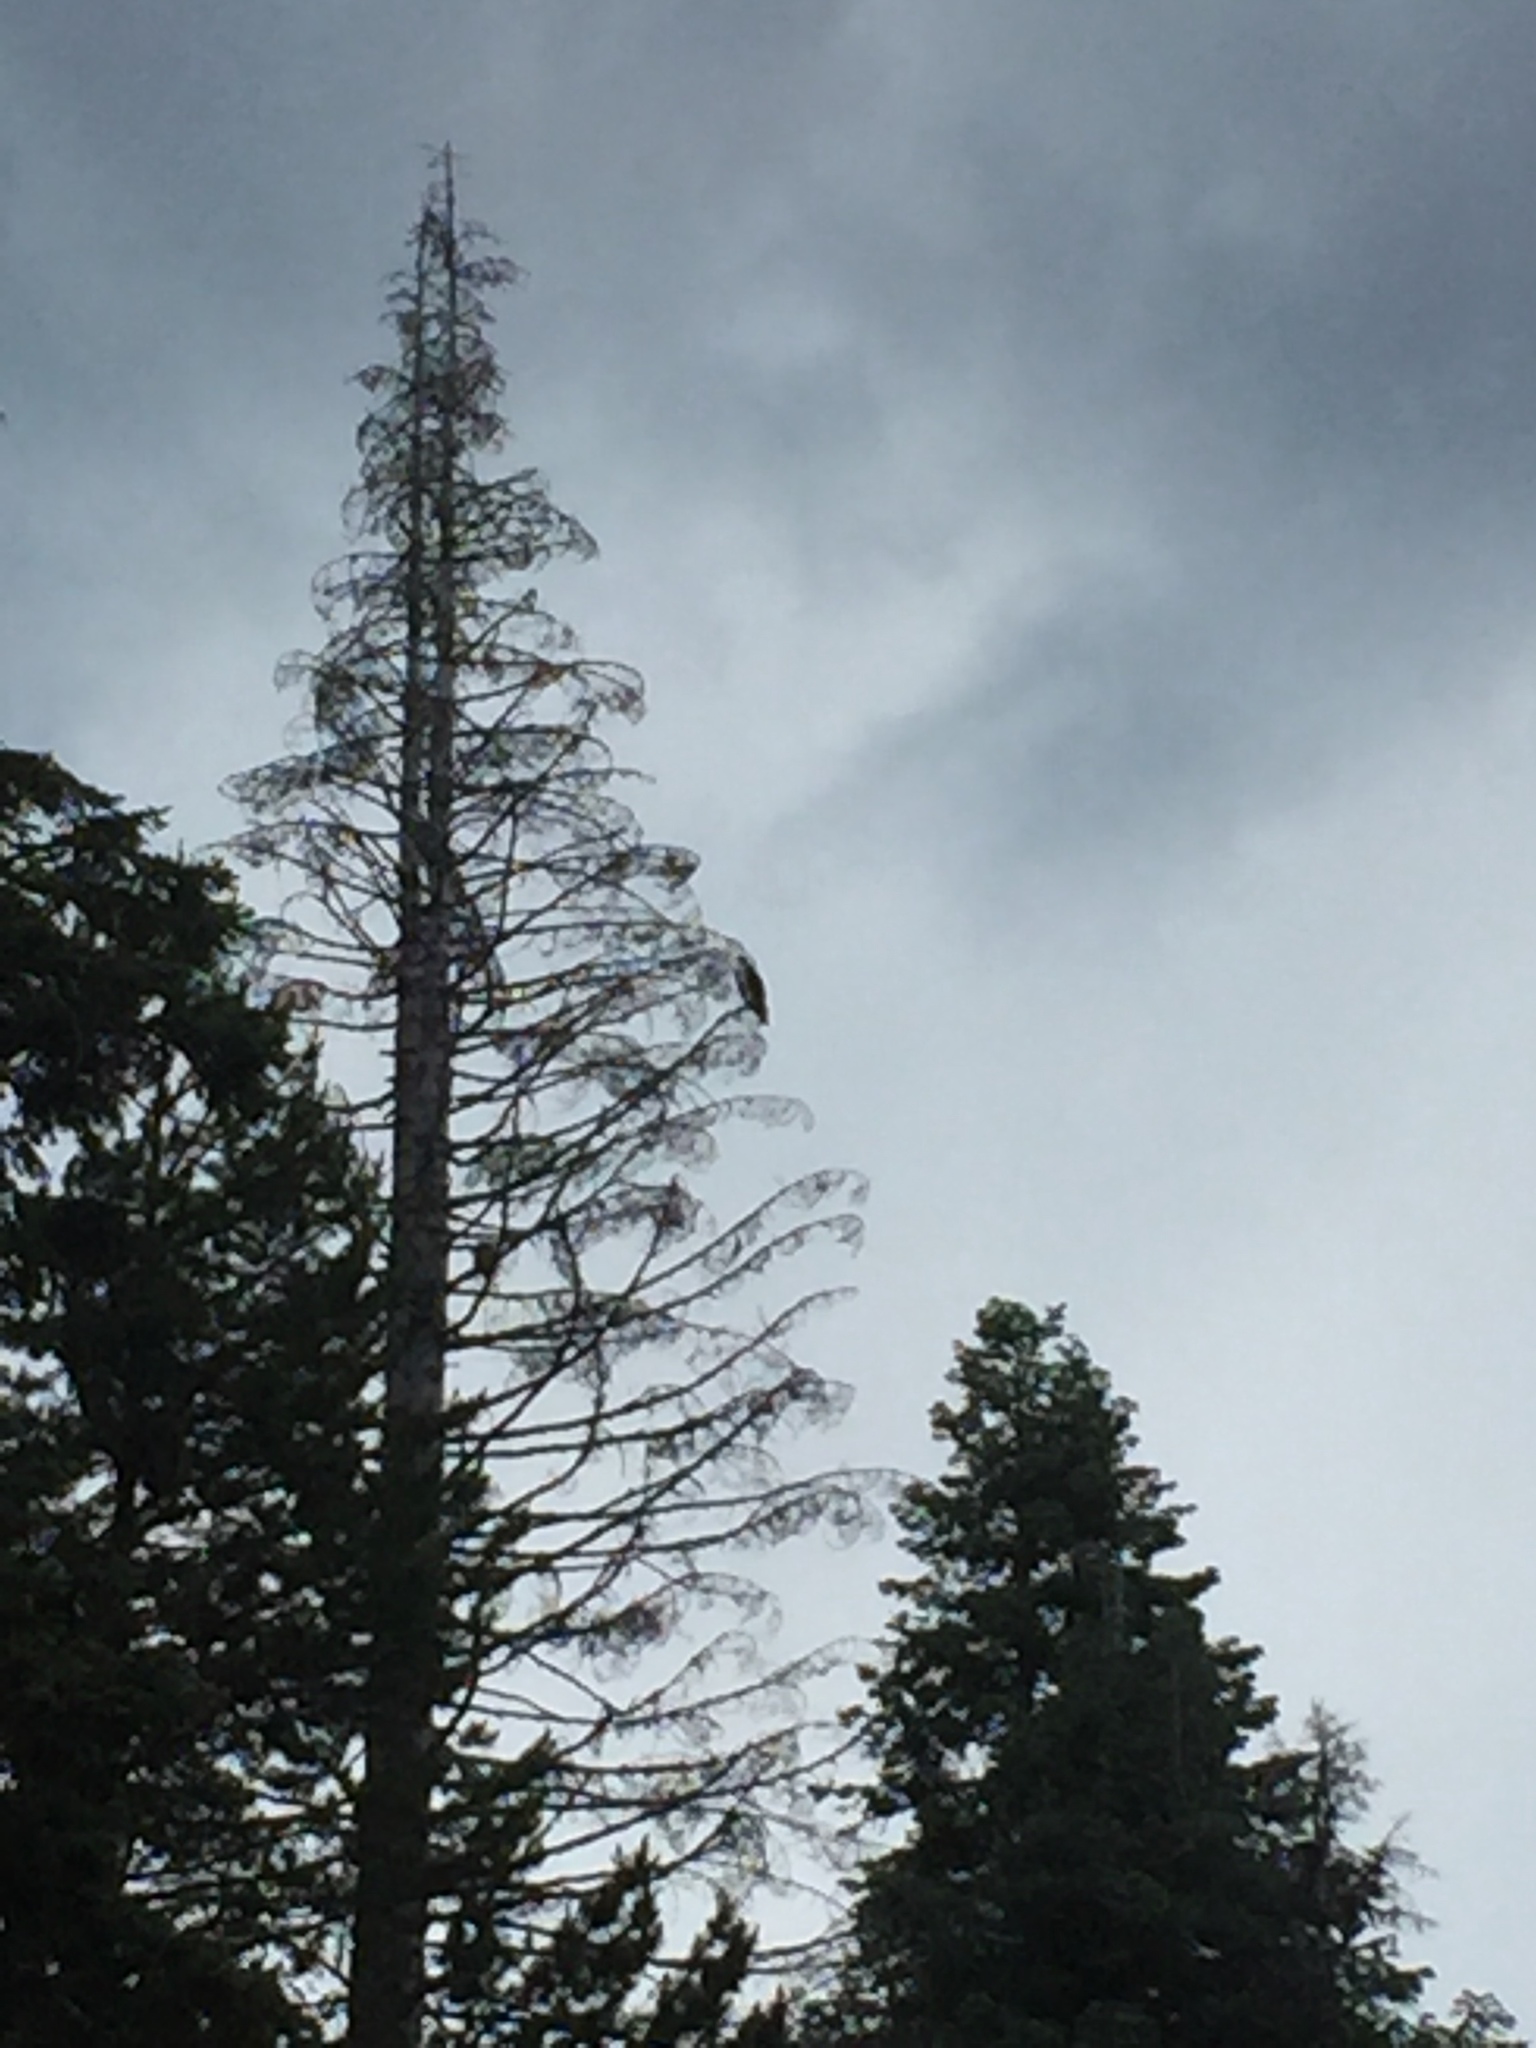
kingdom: Animalia
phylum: Chordata
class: Aves
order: Accipitriformes
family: Pandionidae
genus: Pandion
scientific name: Pandion haliaetus
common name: Osprey
